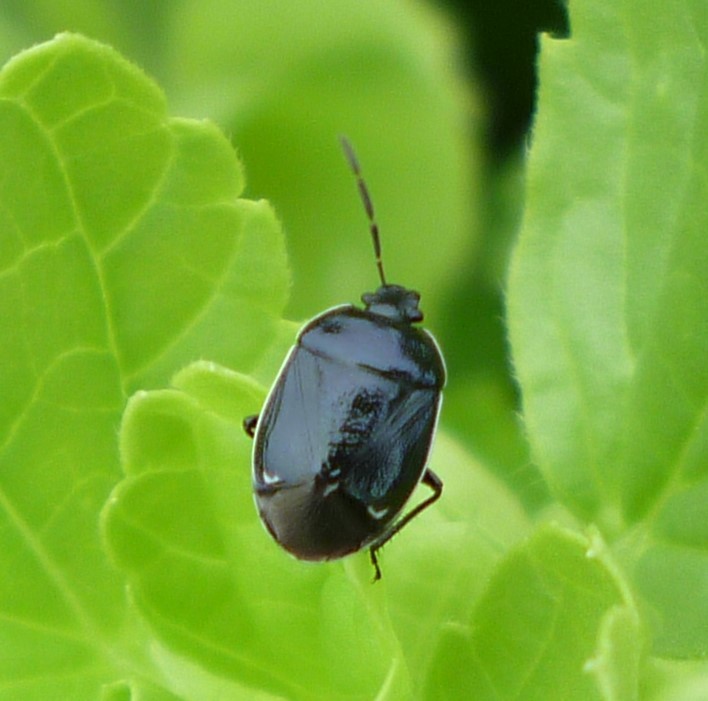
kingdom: Animalia
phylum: Arthropoda
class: Insecta
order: Hemiptera
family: Cydnidae
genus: Sehirus
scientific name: Sehirus cinctus
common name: White-margined burrower bug
